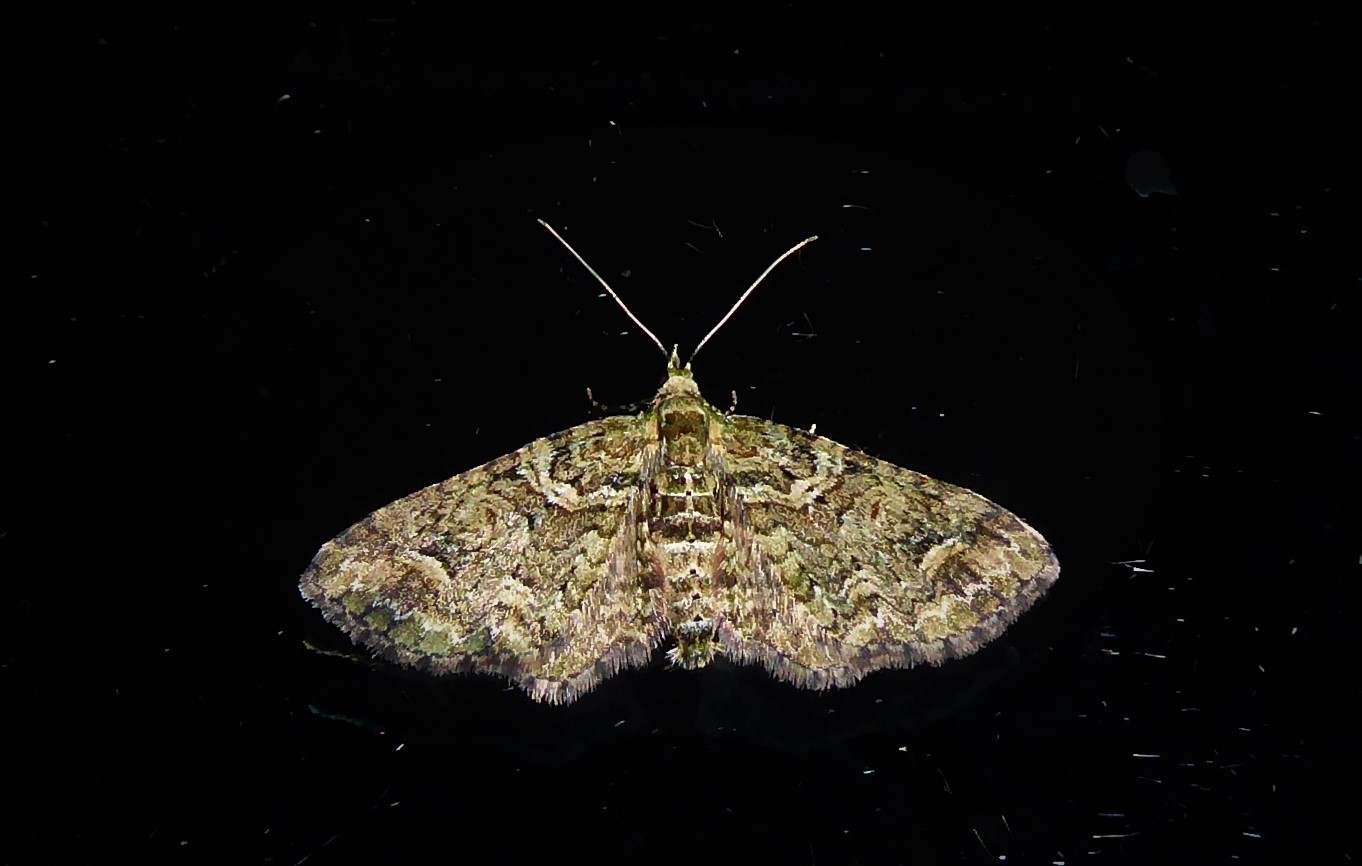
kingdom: Animalia
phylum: Arthropoda
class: Insecta
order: Lepidoptera
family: Geometridae
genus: Idaea
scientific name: Idaea mutanda
